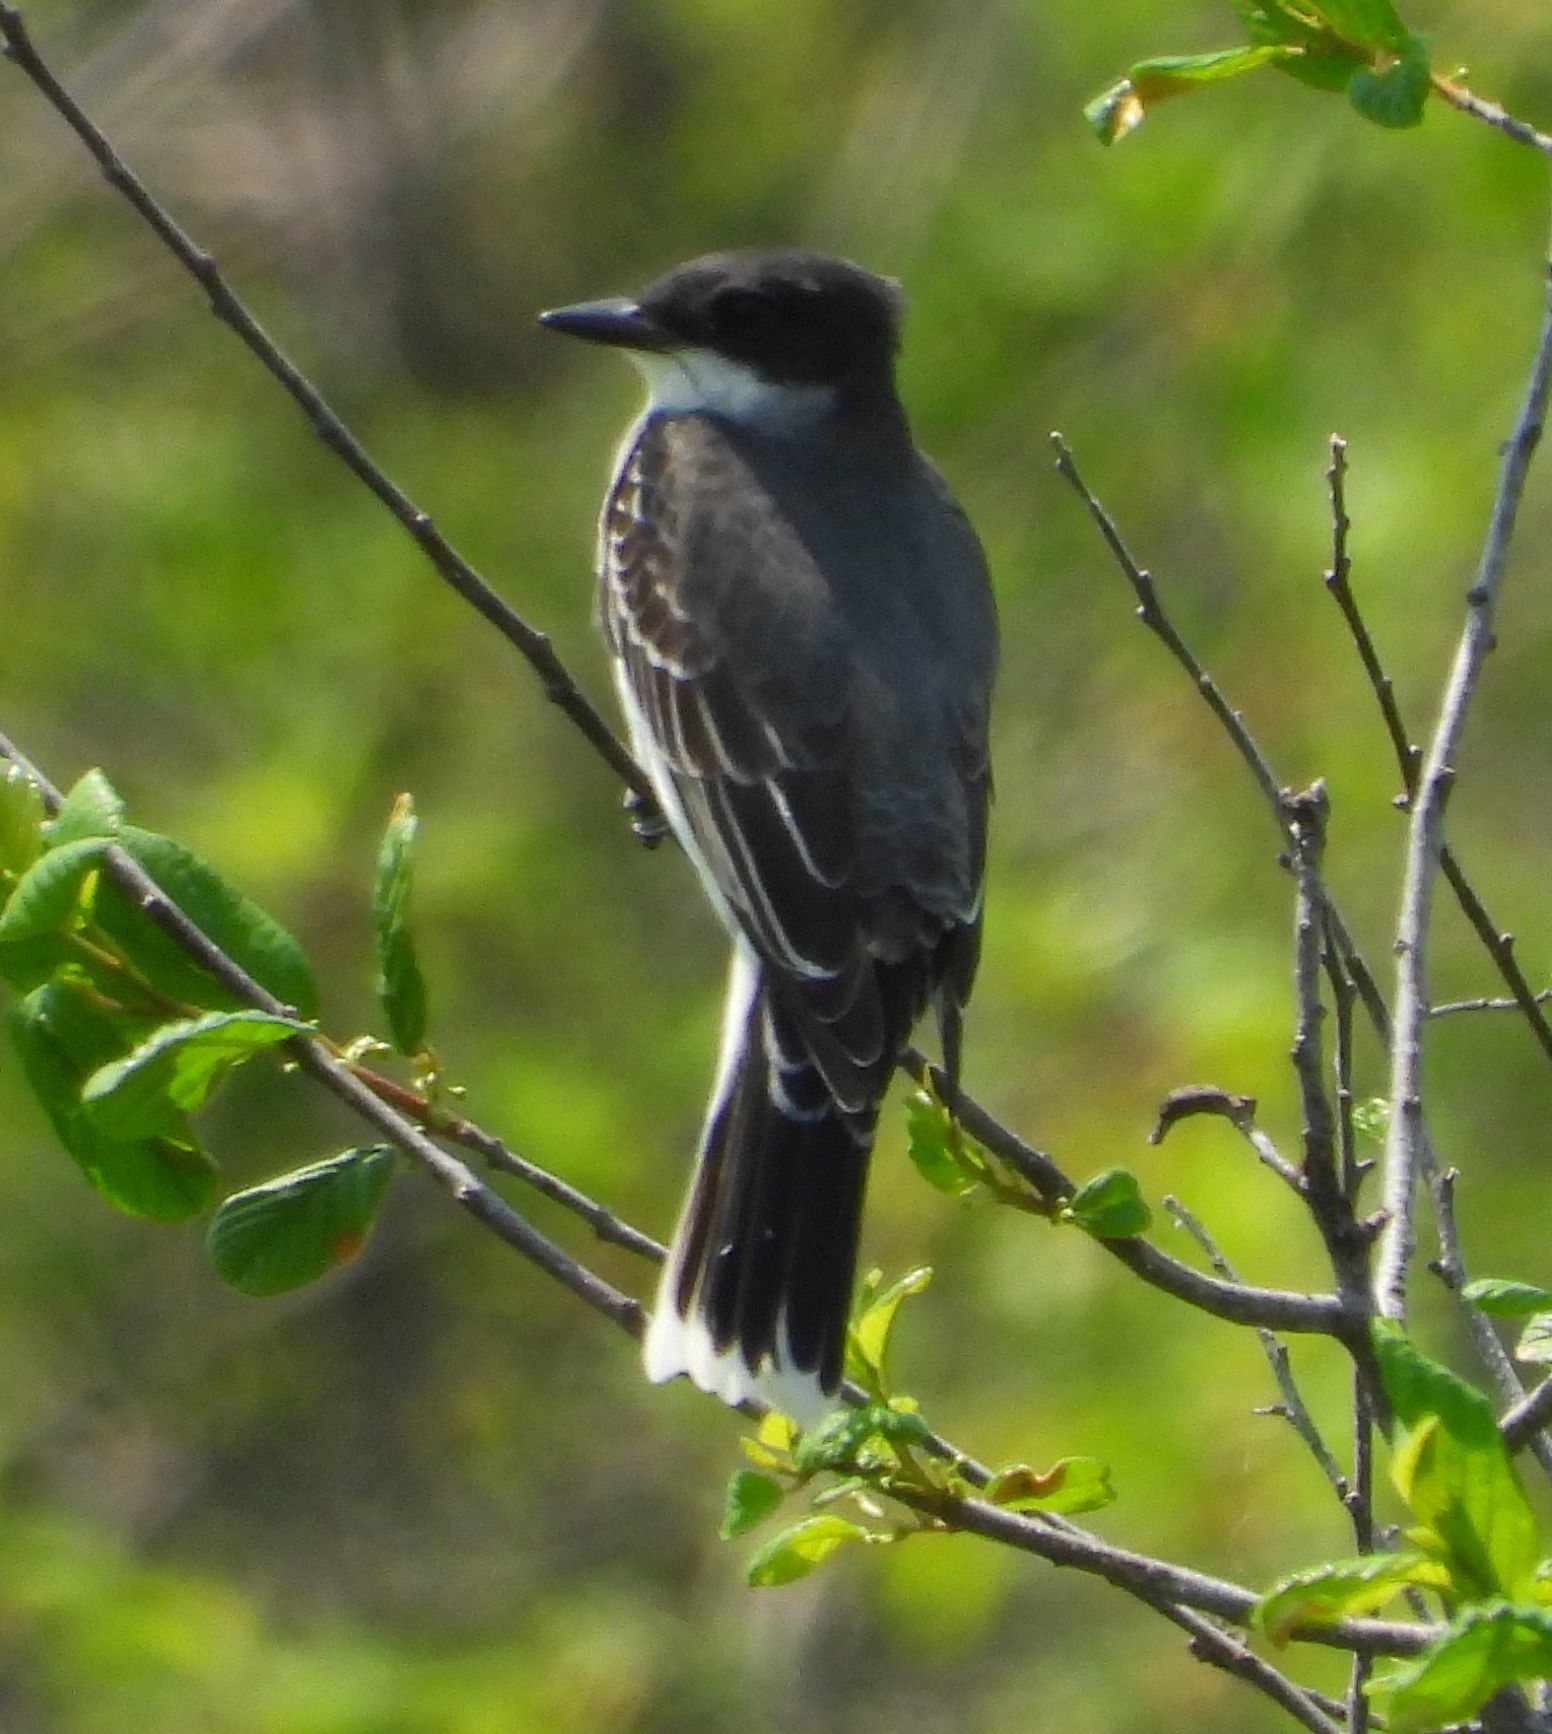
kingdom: Animalia
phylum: Chordata
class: Aves
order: Passeriformes
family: Tyrannidae
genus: Tyrannus
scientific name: Tyrannus tyrannus
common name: Eastern kingbird
